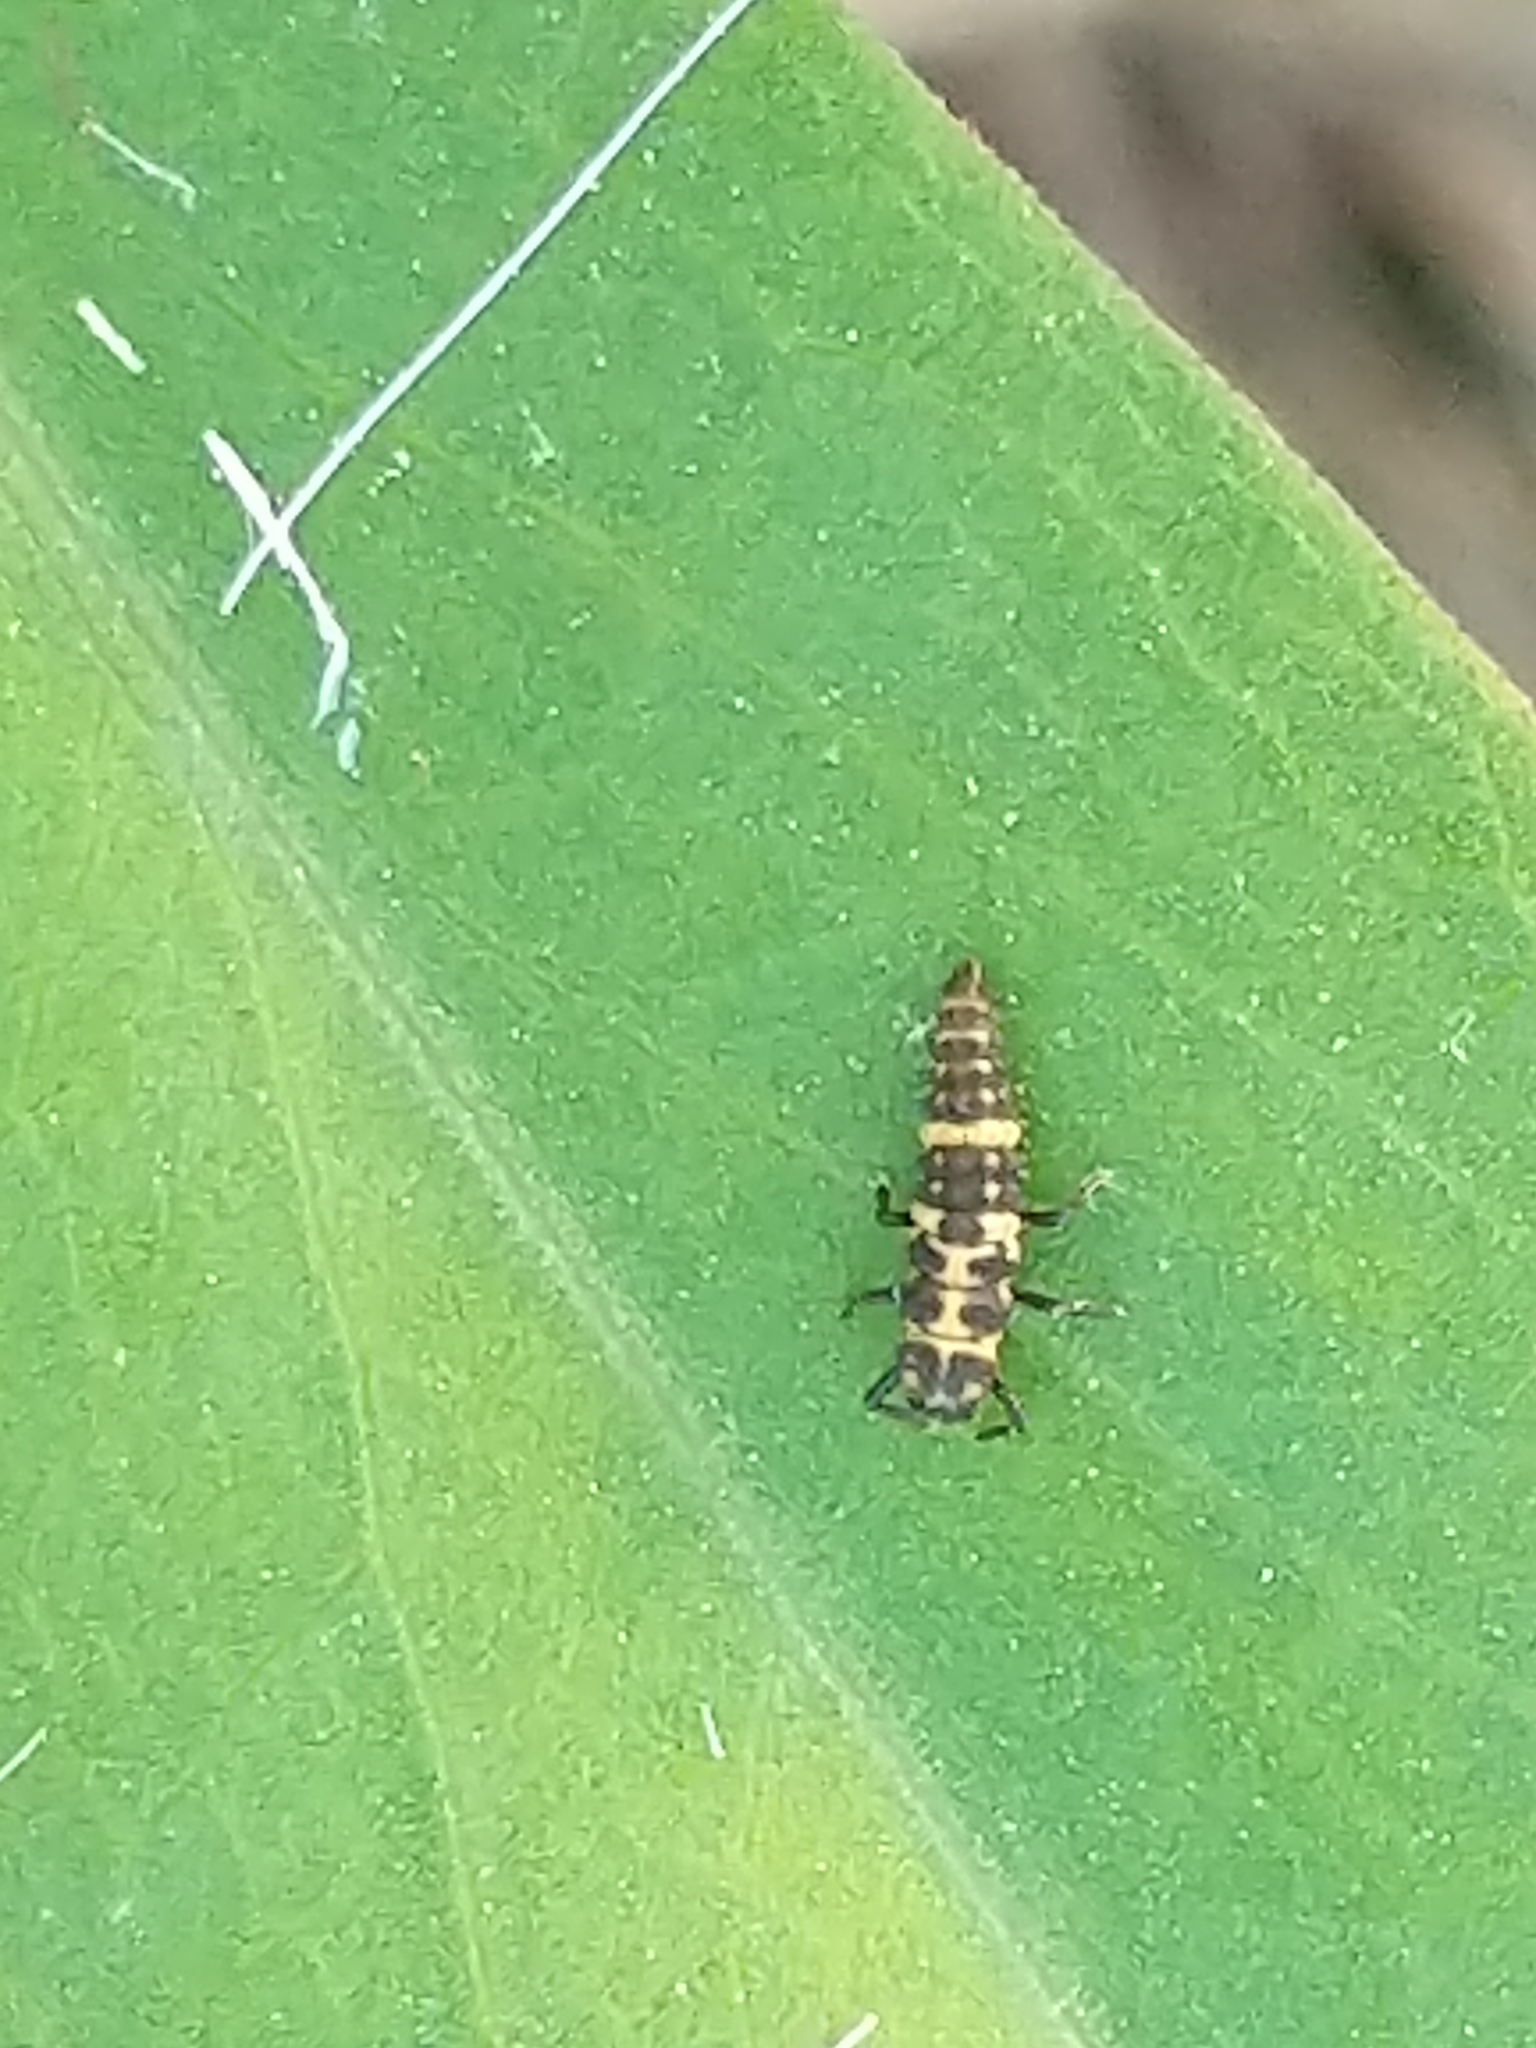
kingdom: Animalia
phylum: Arthropoda
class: Insecta
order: Coleoptera
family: Coccinellidae
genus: Coleomegilla
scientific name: Coleomegilla maculata
